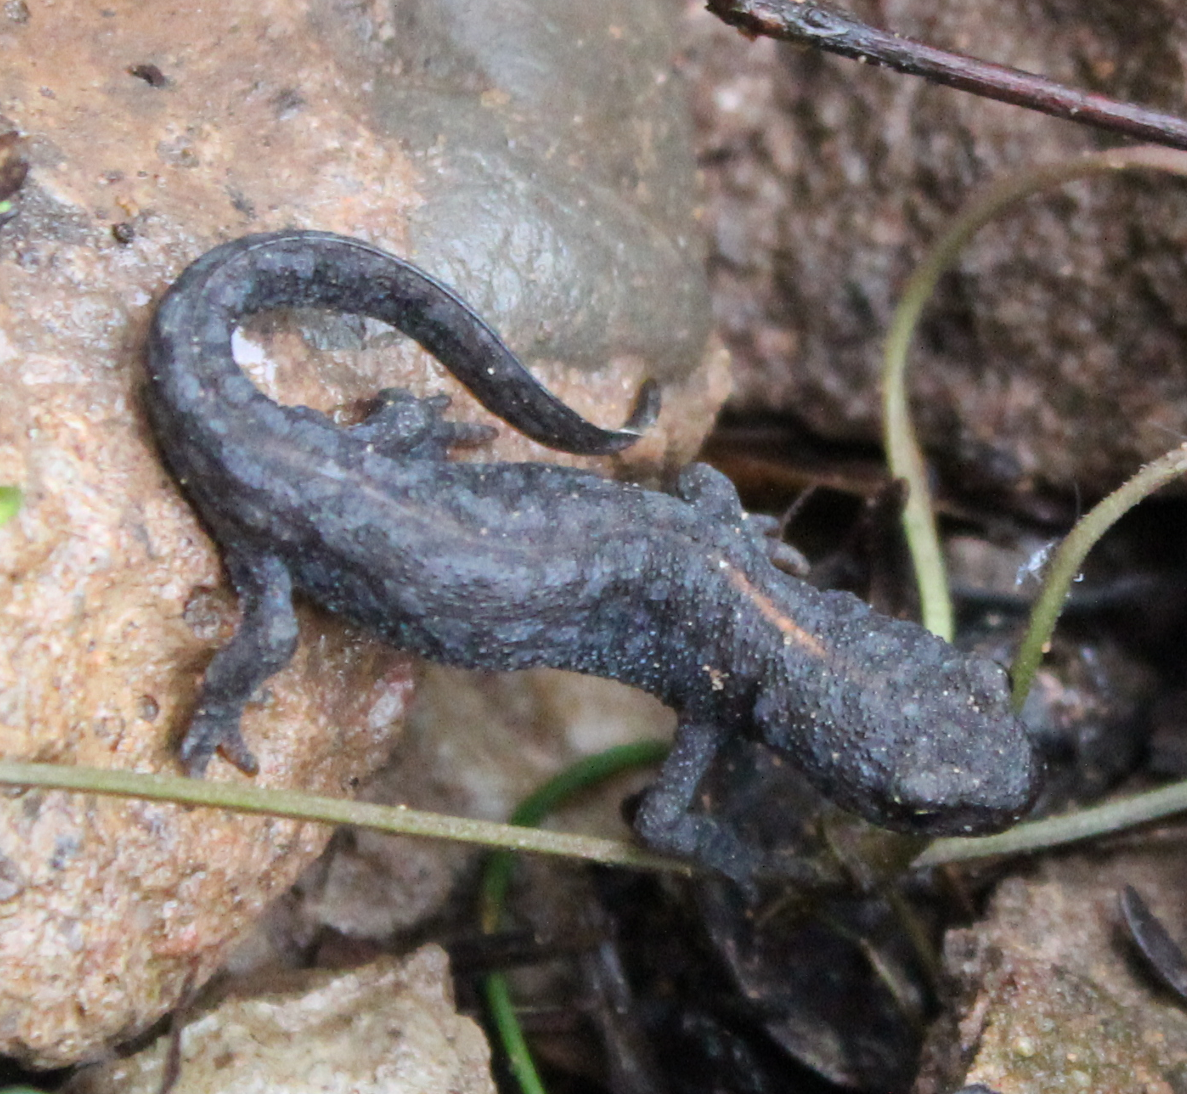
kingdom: Animalia
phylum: Chordata
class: Amphibia
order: Caudata
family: Salamandridae
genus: Ichthyosaura
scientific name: Ichthyosaura alpestris
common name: Alpine newt
